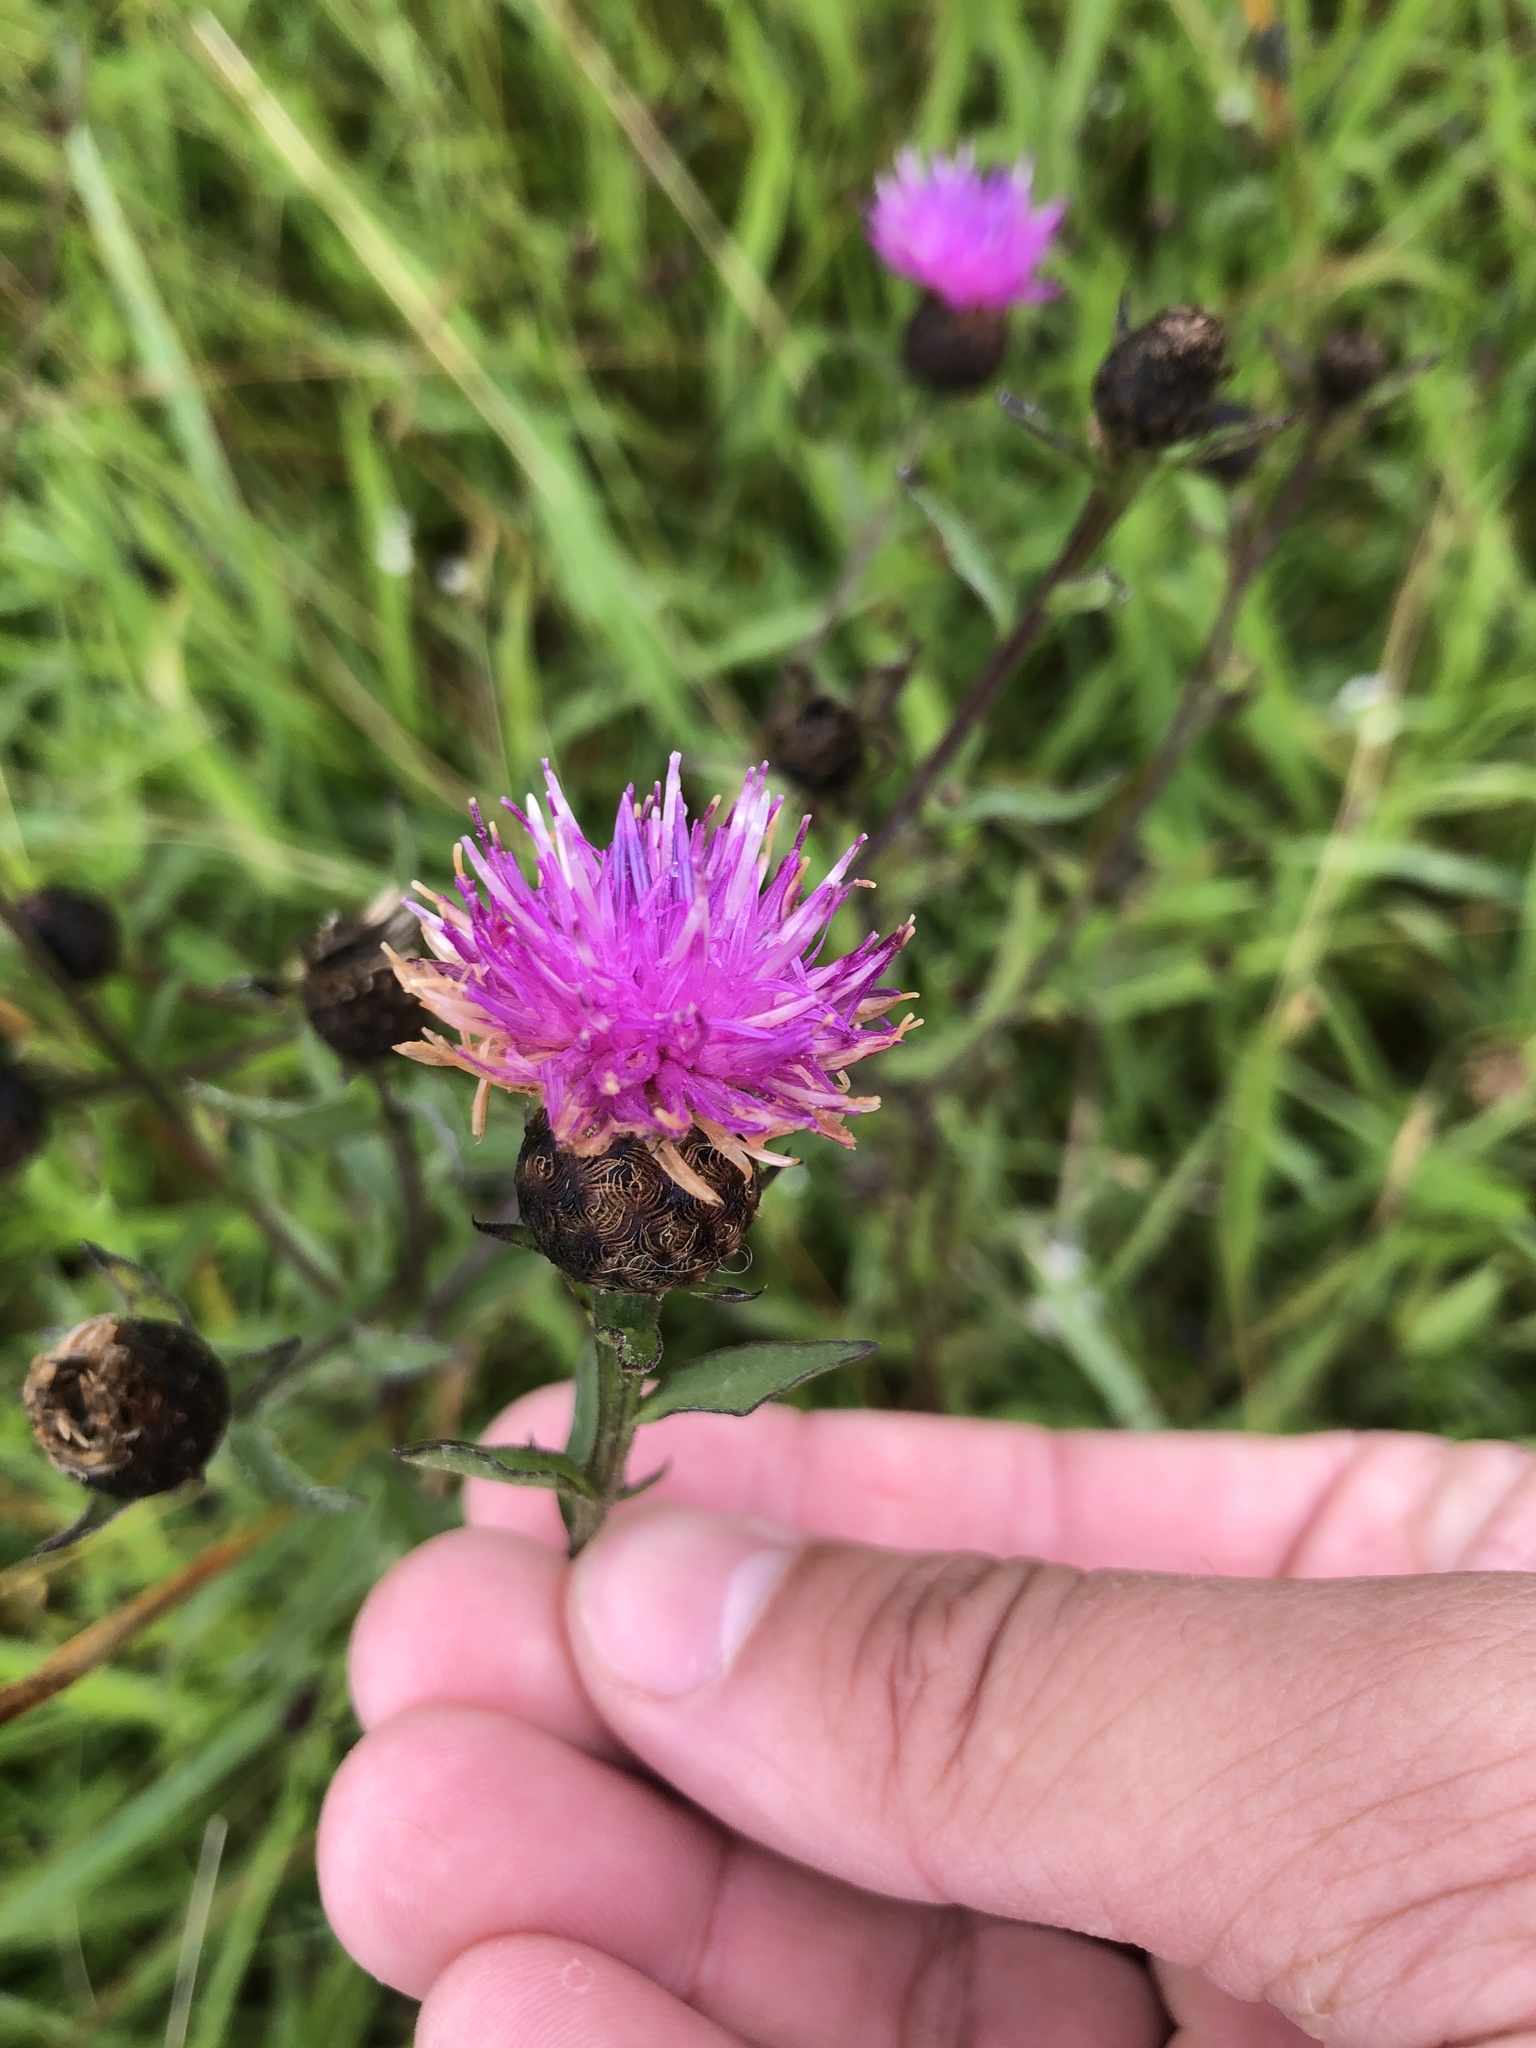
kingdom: Plantae
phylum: Tracheophyta
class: Magnoliopsida
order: Asterales
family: Asteraceae
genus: Centaurea
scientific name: Centaurea nigra
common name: Lesser knapweed
